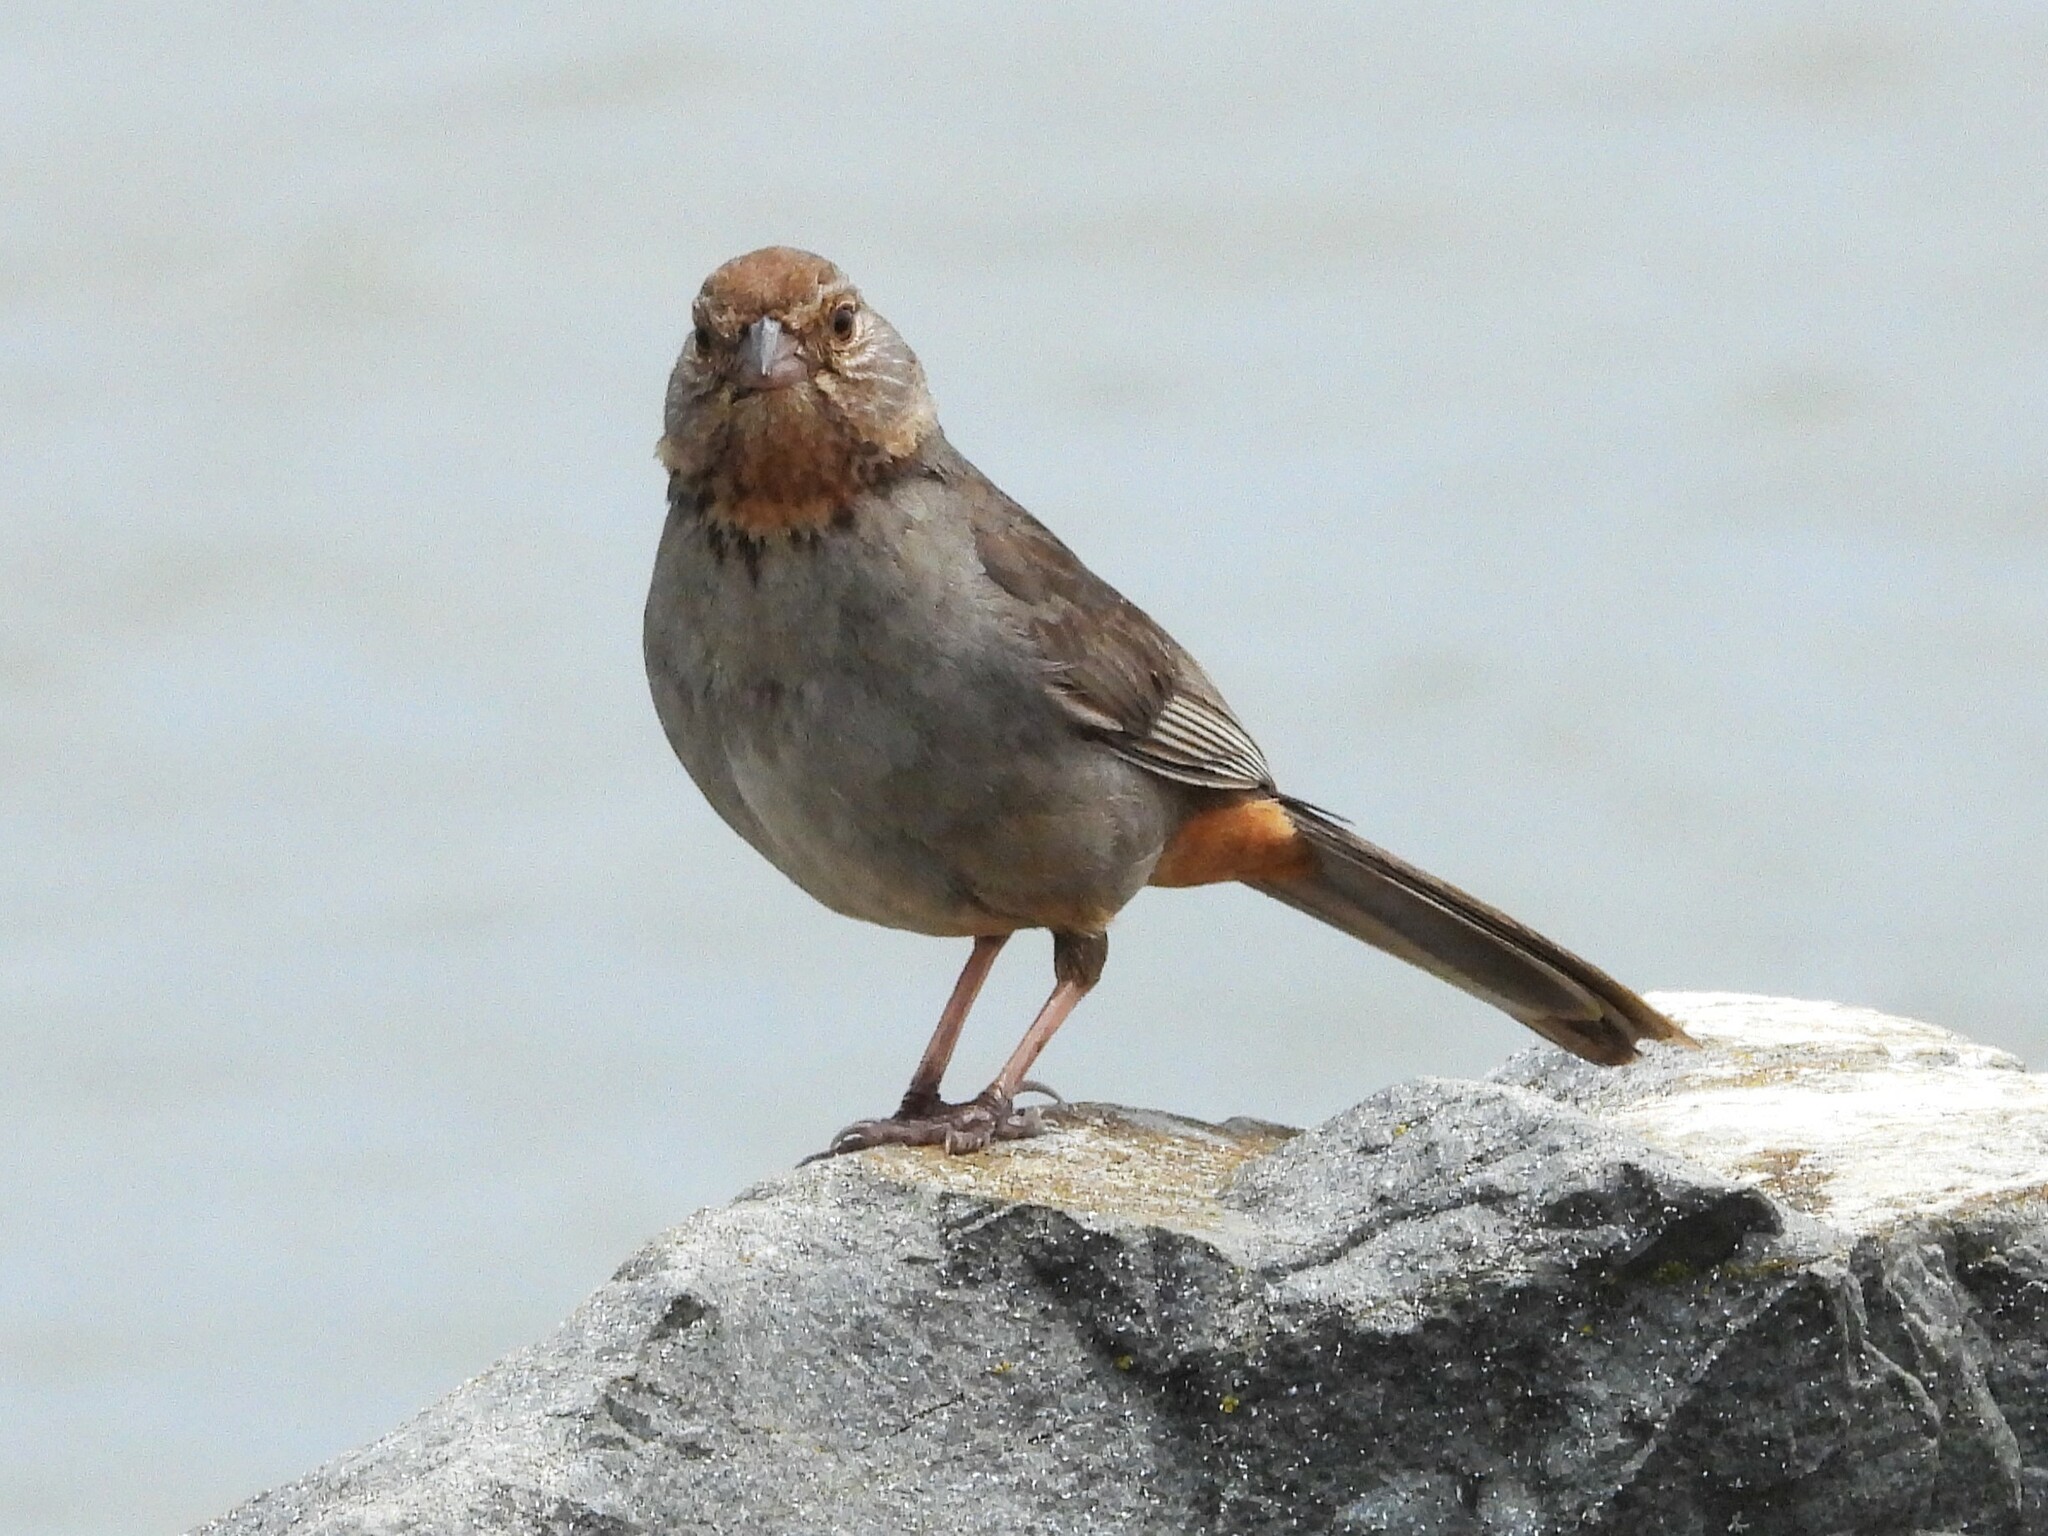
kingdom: Animalia
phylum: Chordata
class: Aves
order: Passeriformes
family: Passerellidae
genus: Melozone
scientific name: Melozone crissalis
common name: California towhee
